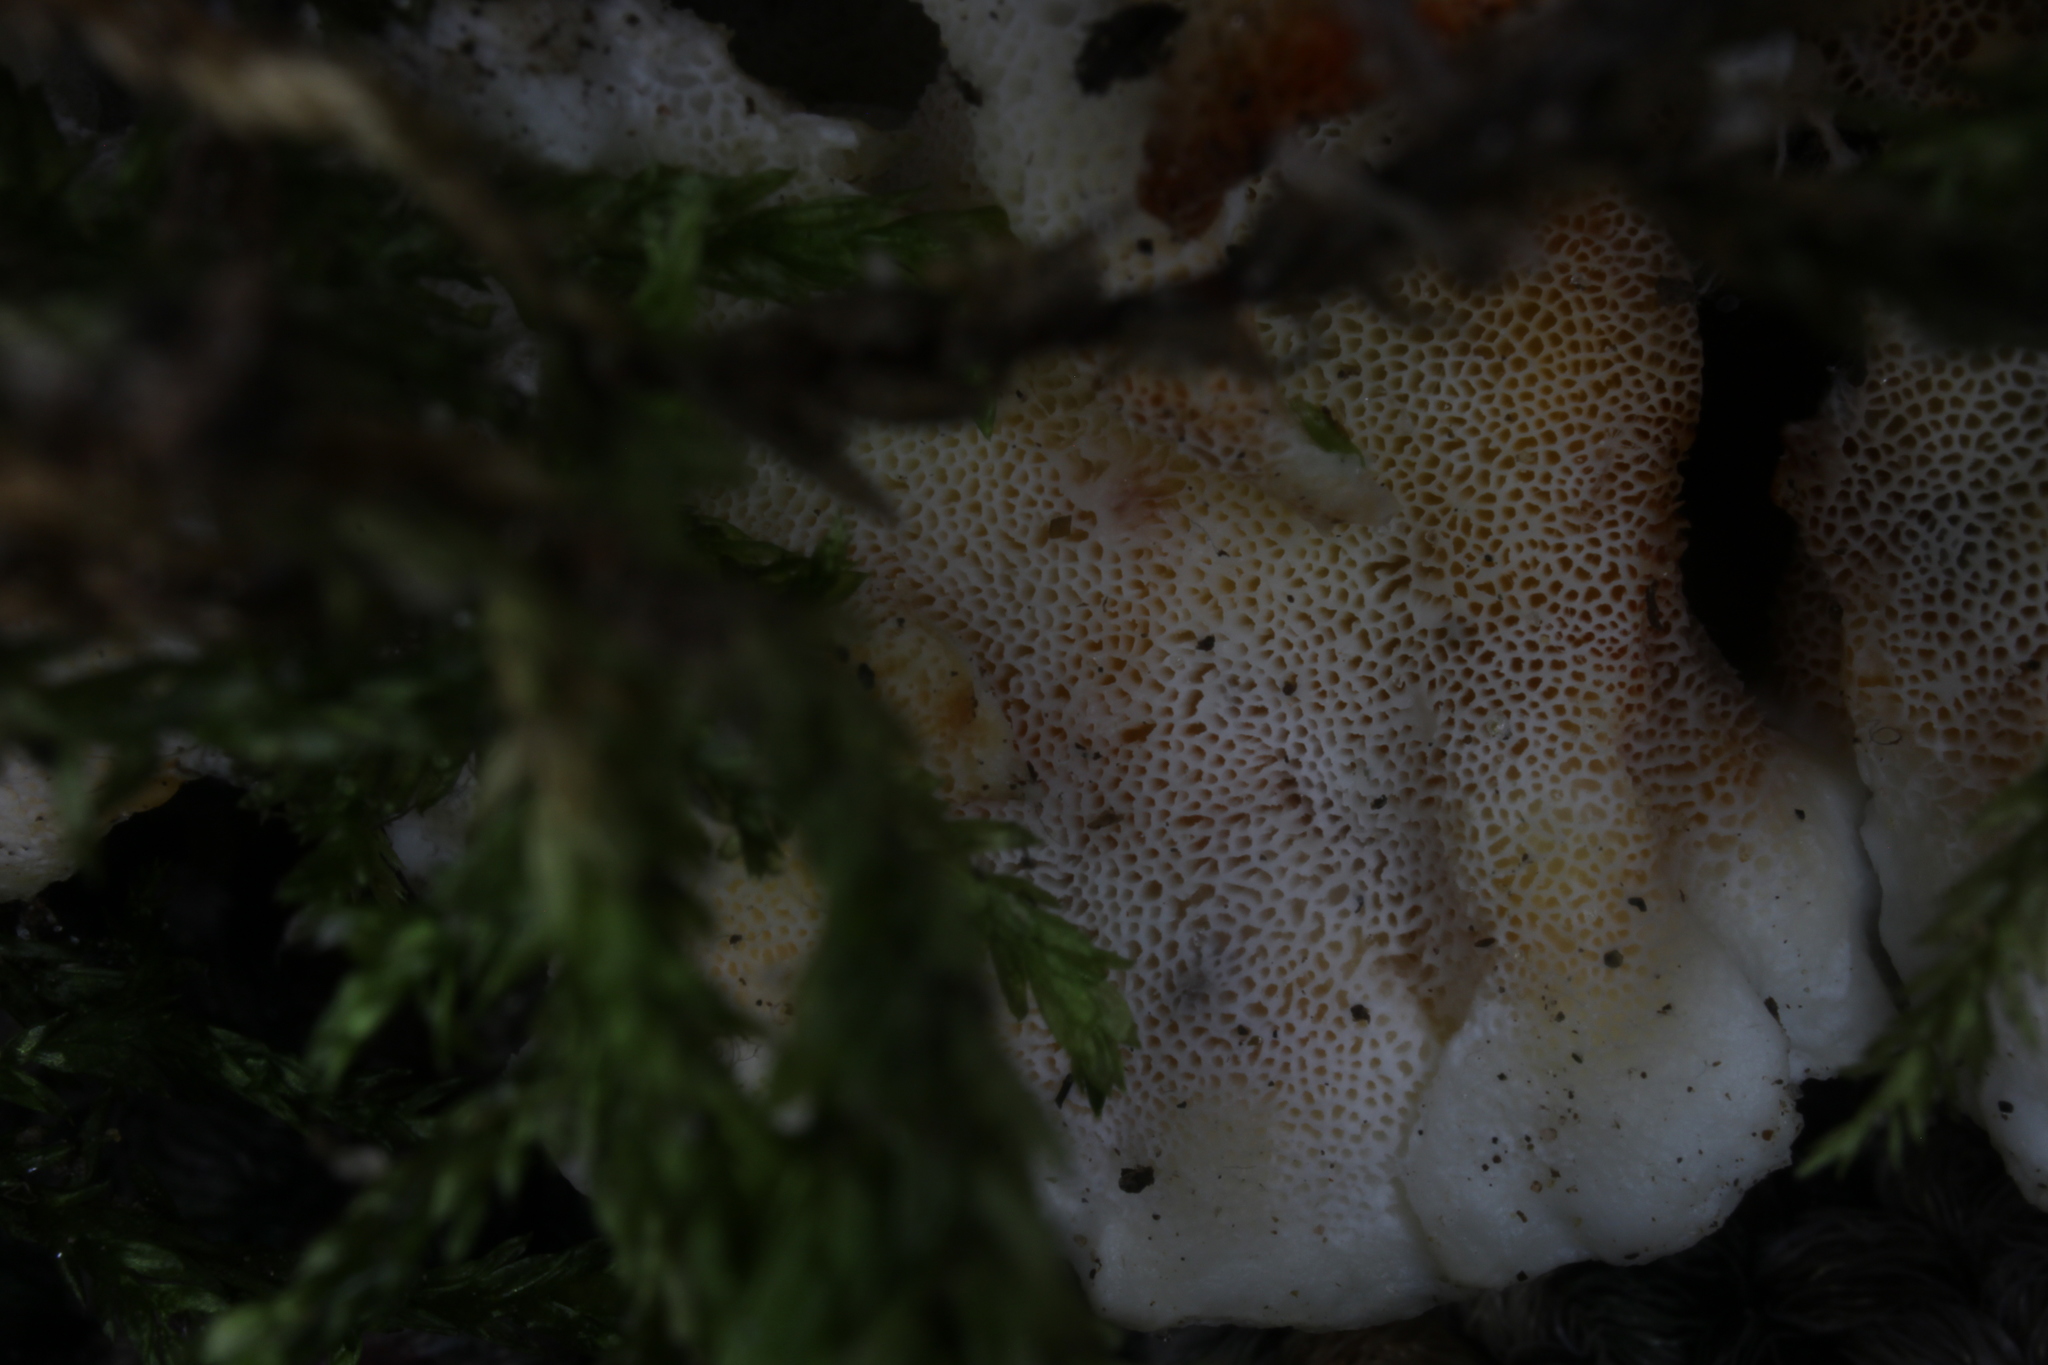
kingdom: Fungi
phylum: Basidiomycota
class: Agaricomycetes
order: Polyporales
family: Meruliaceae
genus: Phlebia
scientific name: Phlebia tremellosa
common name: Jelly rot
